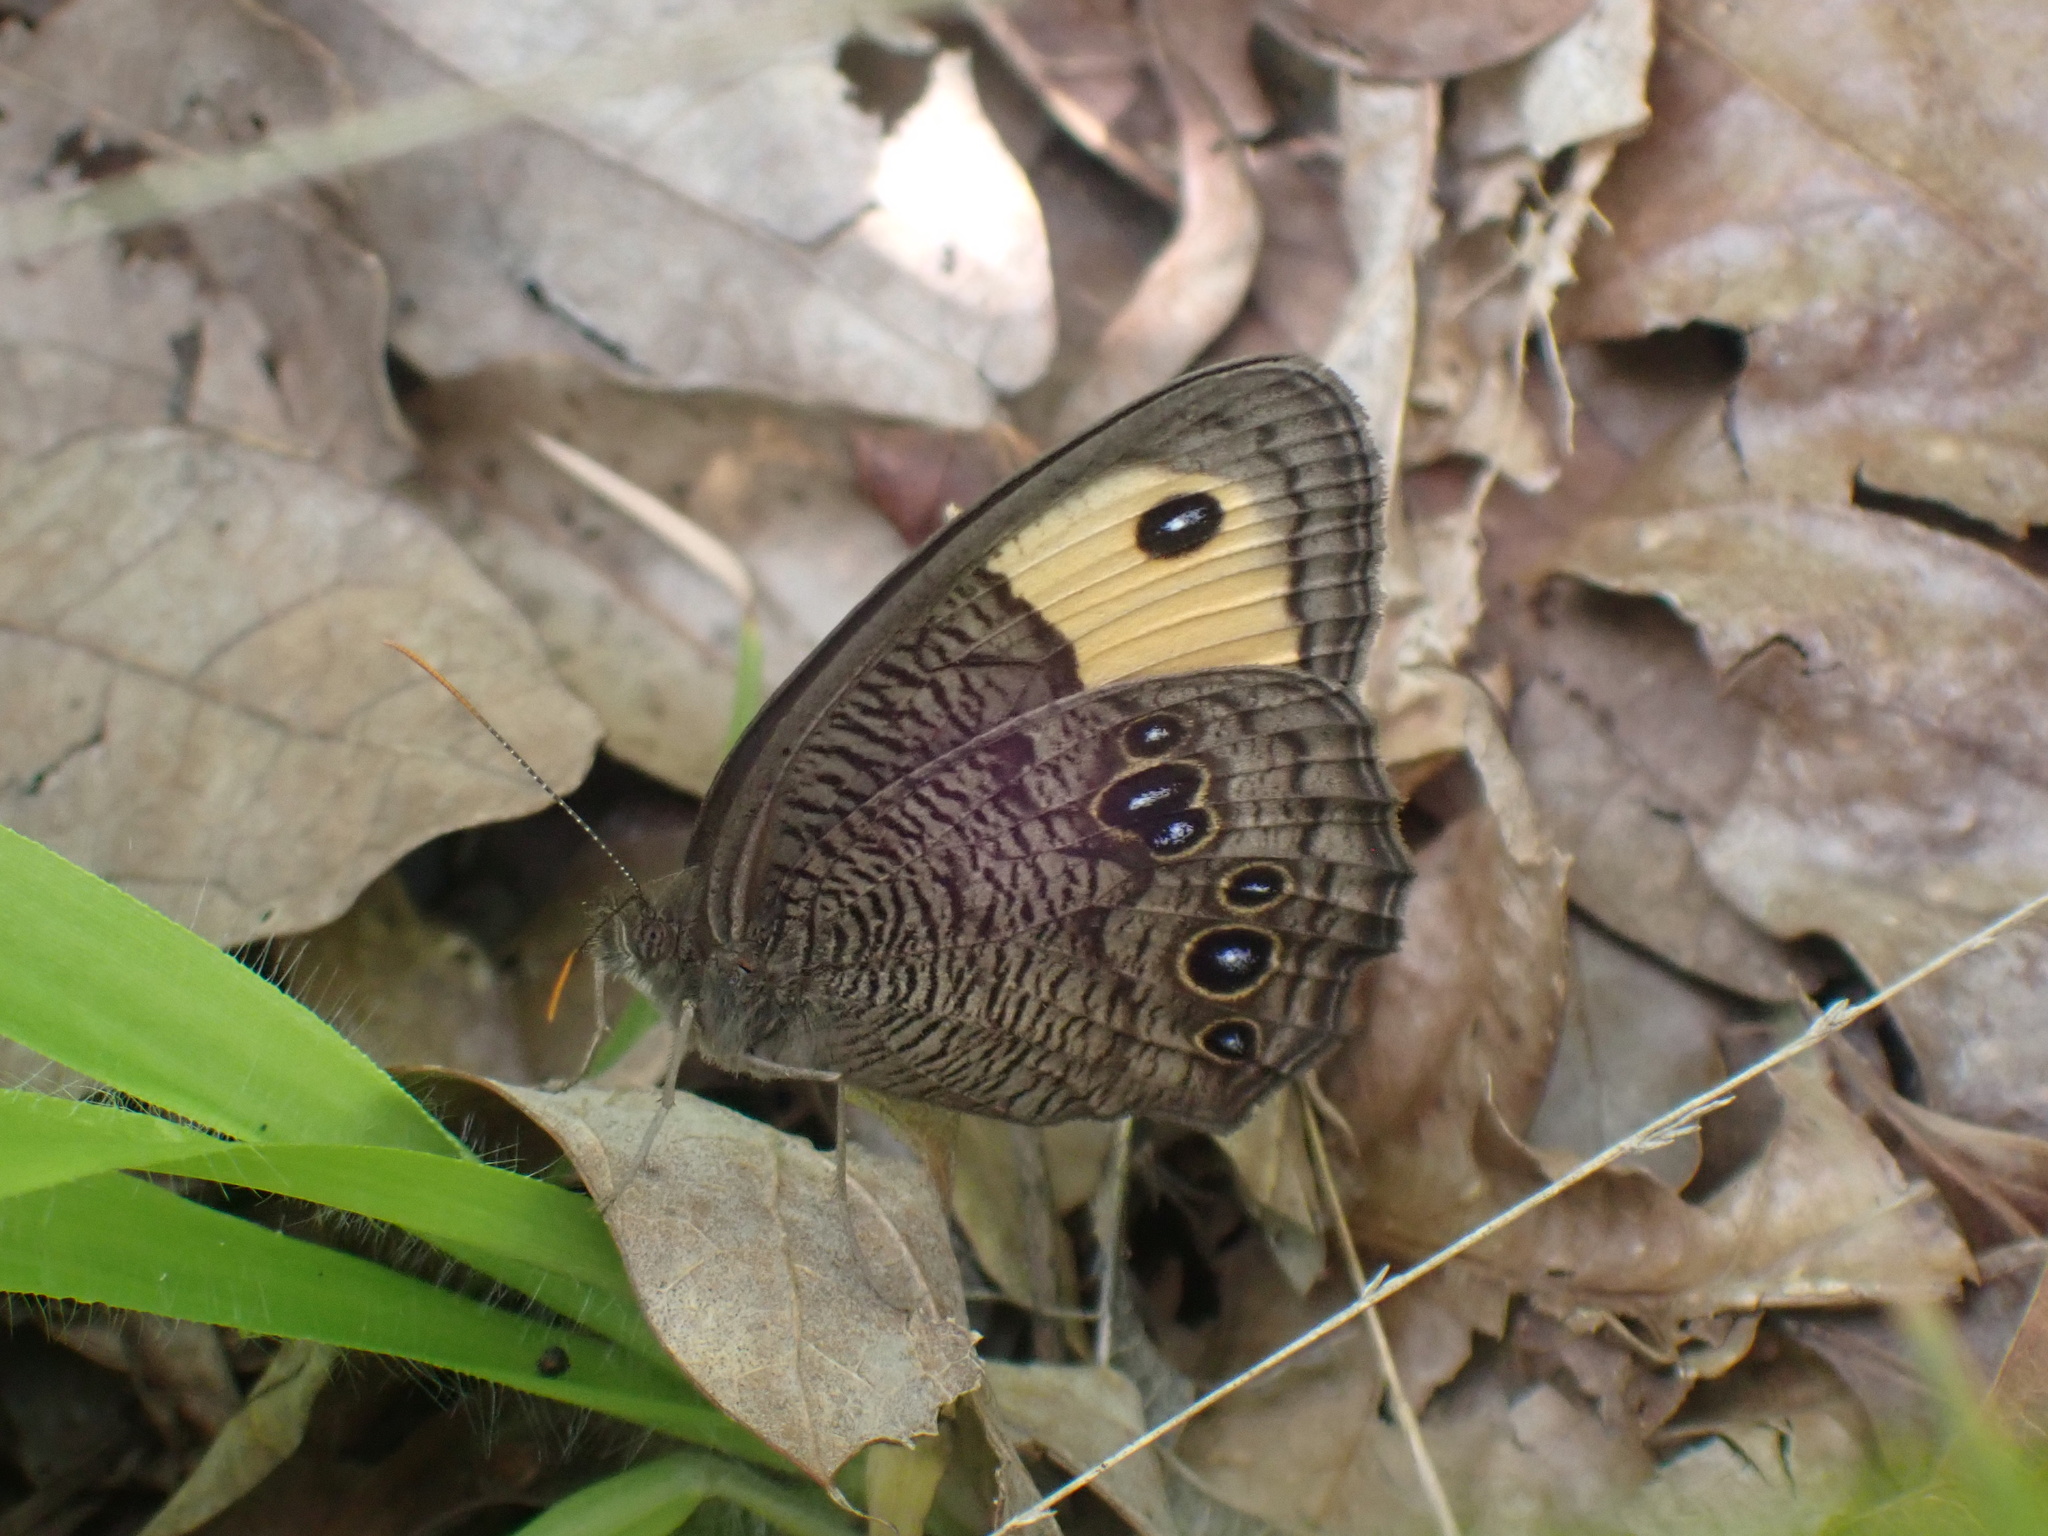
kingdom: Animalia
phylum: Arthropoda
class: Insecta
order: Lepidoptera
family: Nymphalidae
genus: Cercyonis
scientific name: Cercyonis pegala
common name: Common wood-nymph
